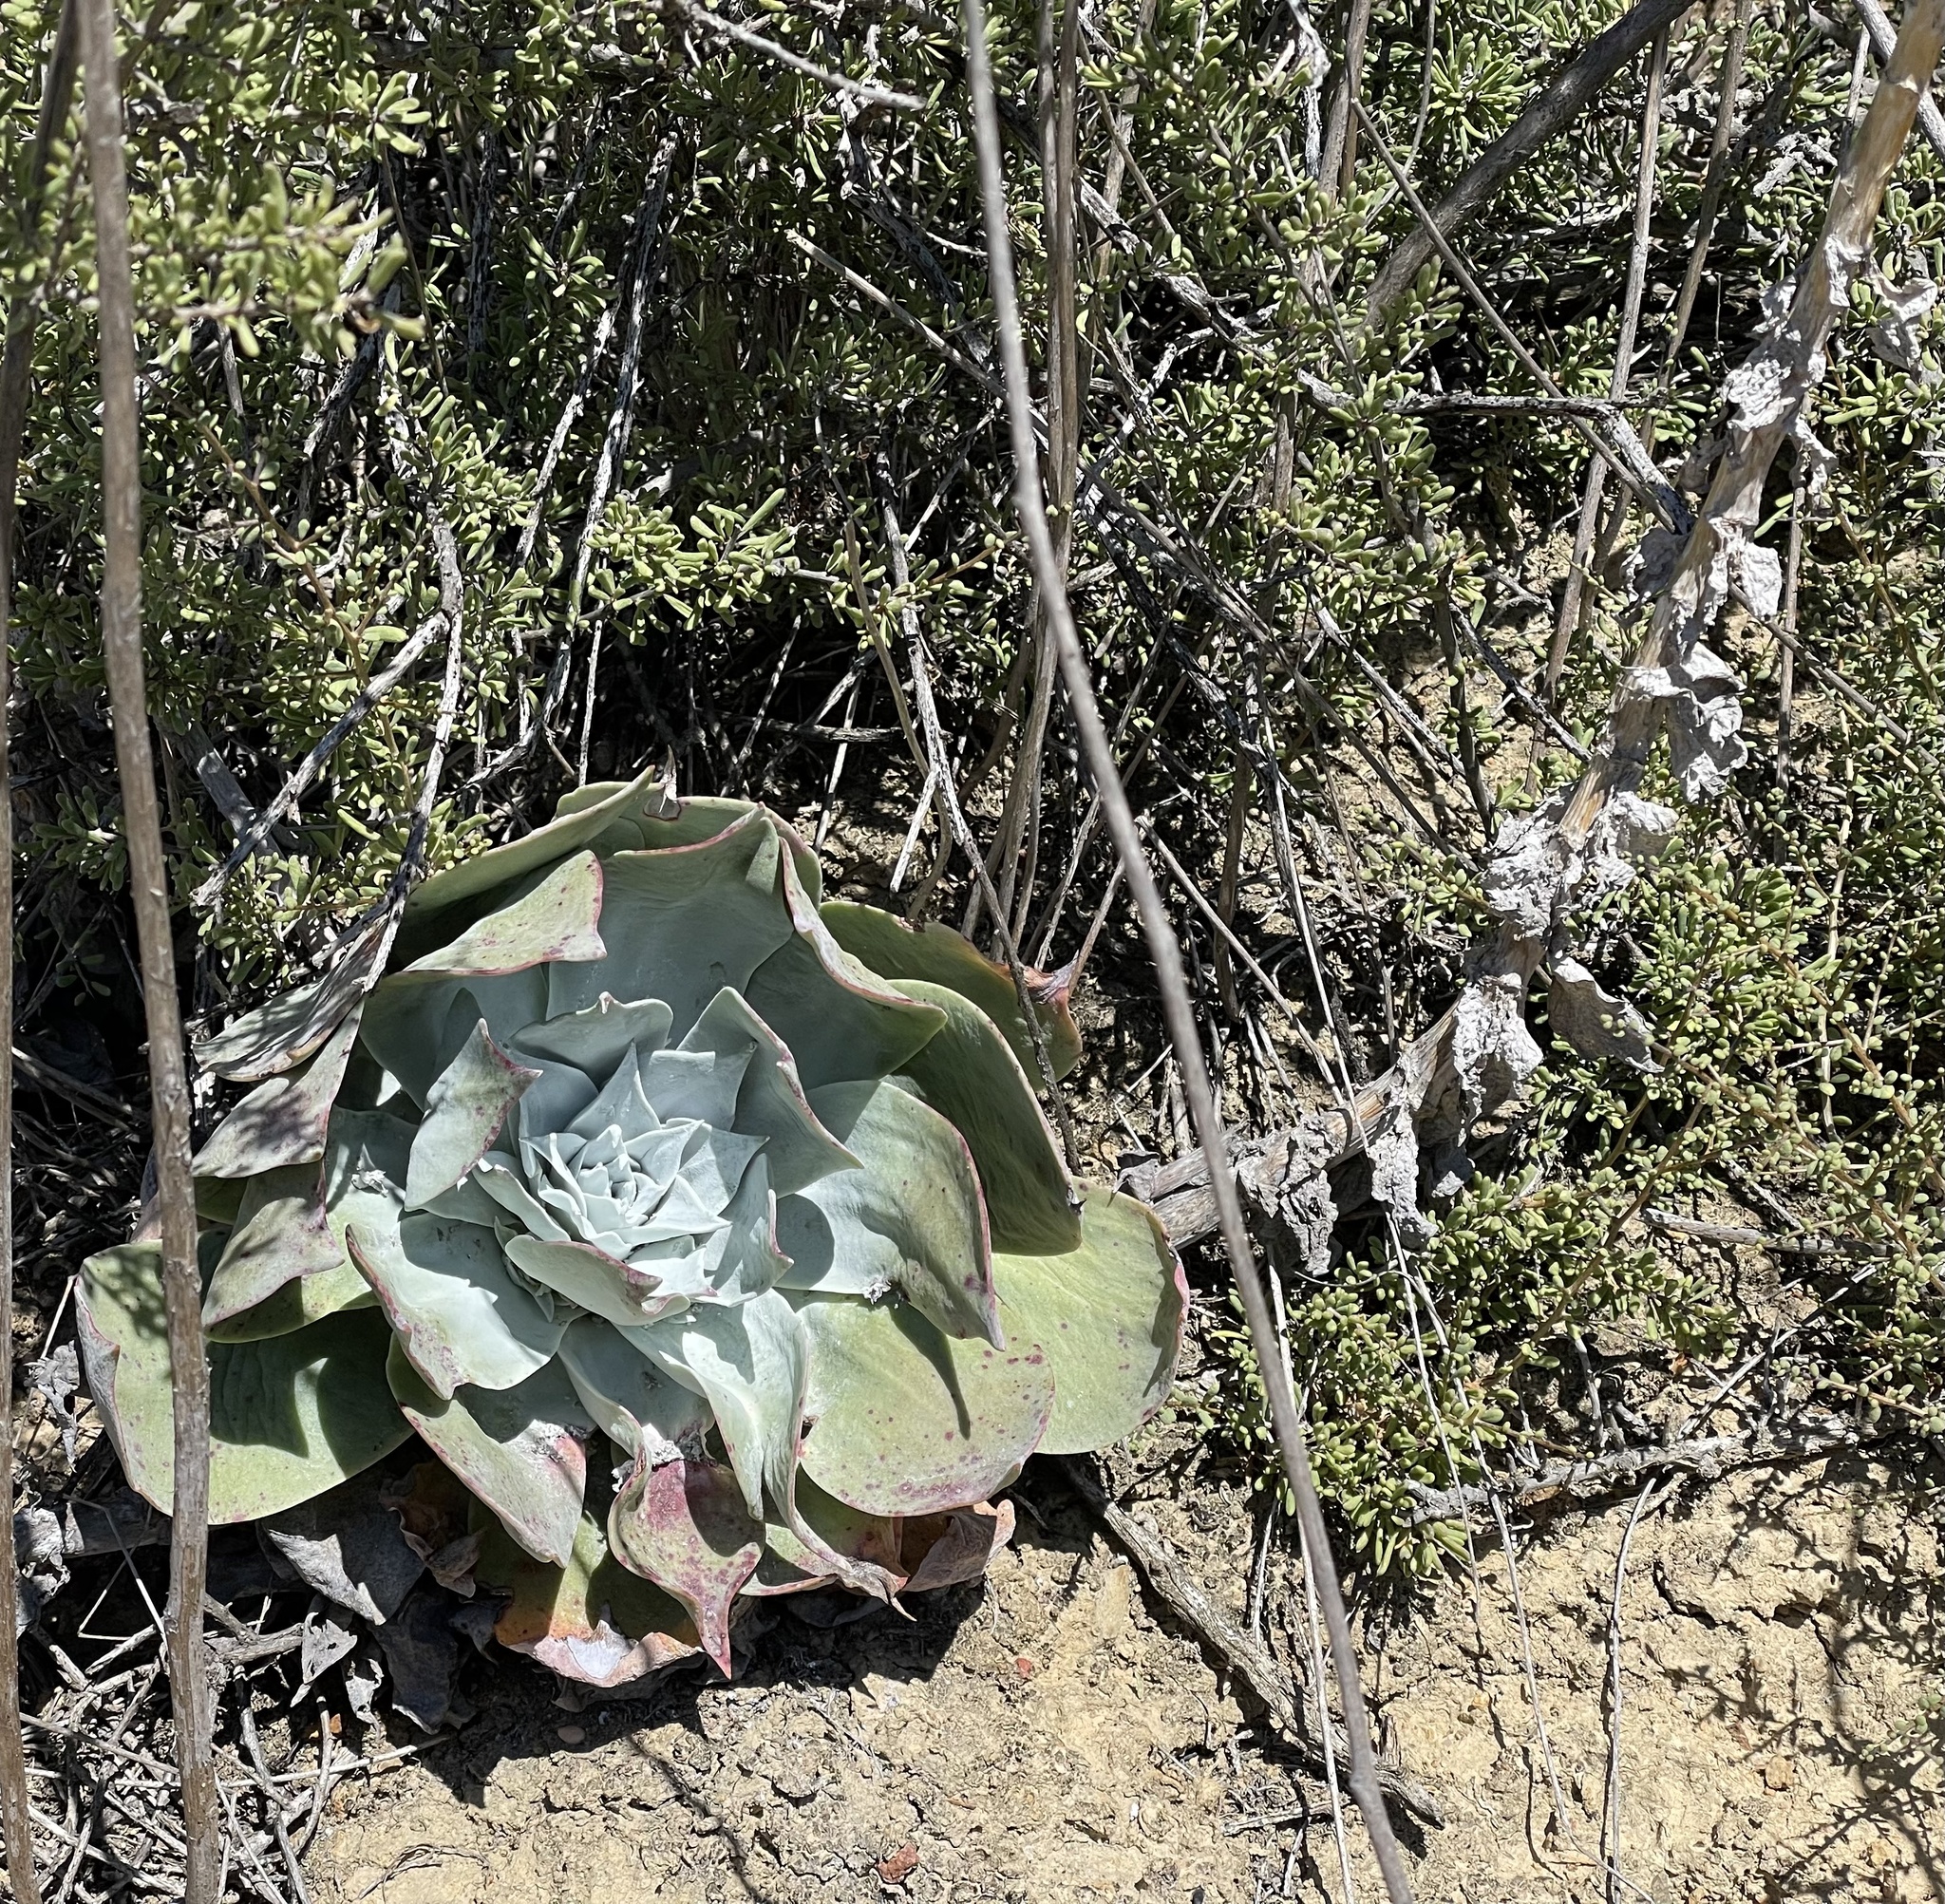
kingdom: Plantae
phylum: Tracheophyta
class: Magnoliopsida
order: Saxifragales
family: Crassulaceae
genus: Dudleya
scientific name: Dudleya pulverulenta
